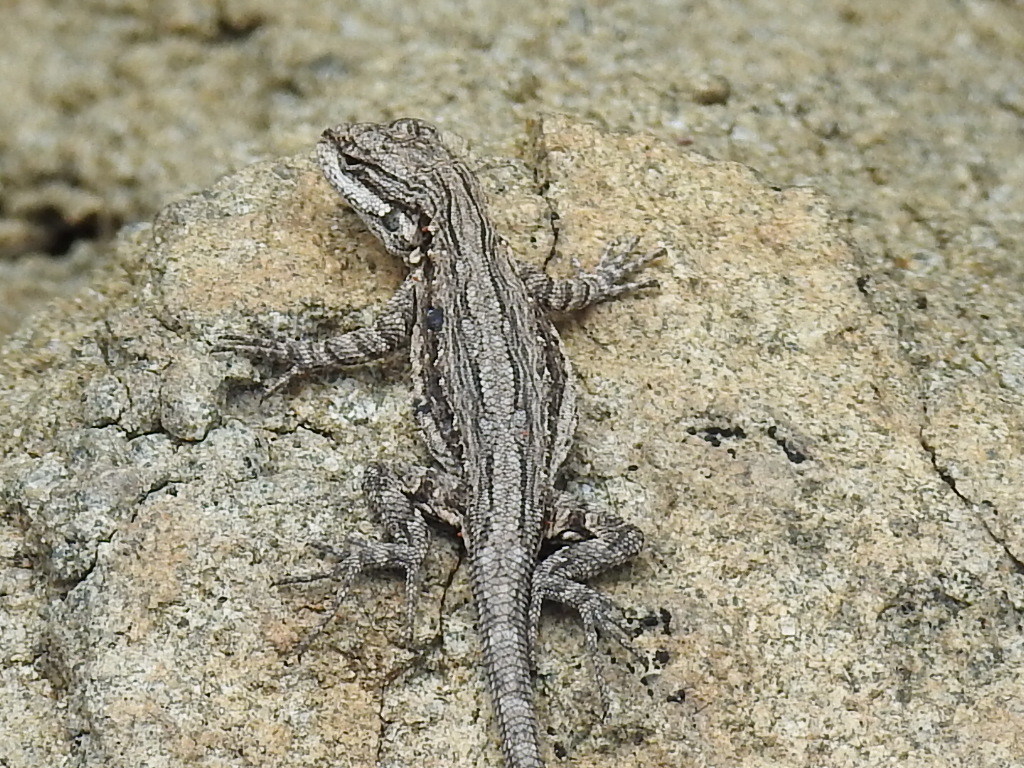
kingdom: Animalia
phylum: Chordata
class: Squamata
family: Phrynosomatidae
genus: Urosaurus
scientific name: Urosaurus ornatus
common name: Ornate tree lizard
